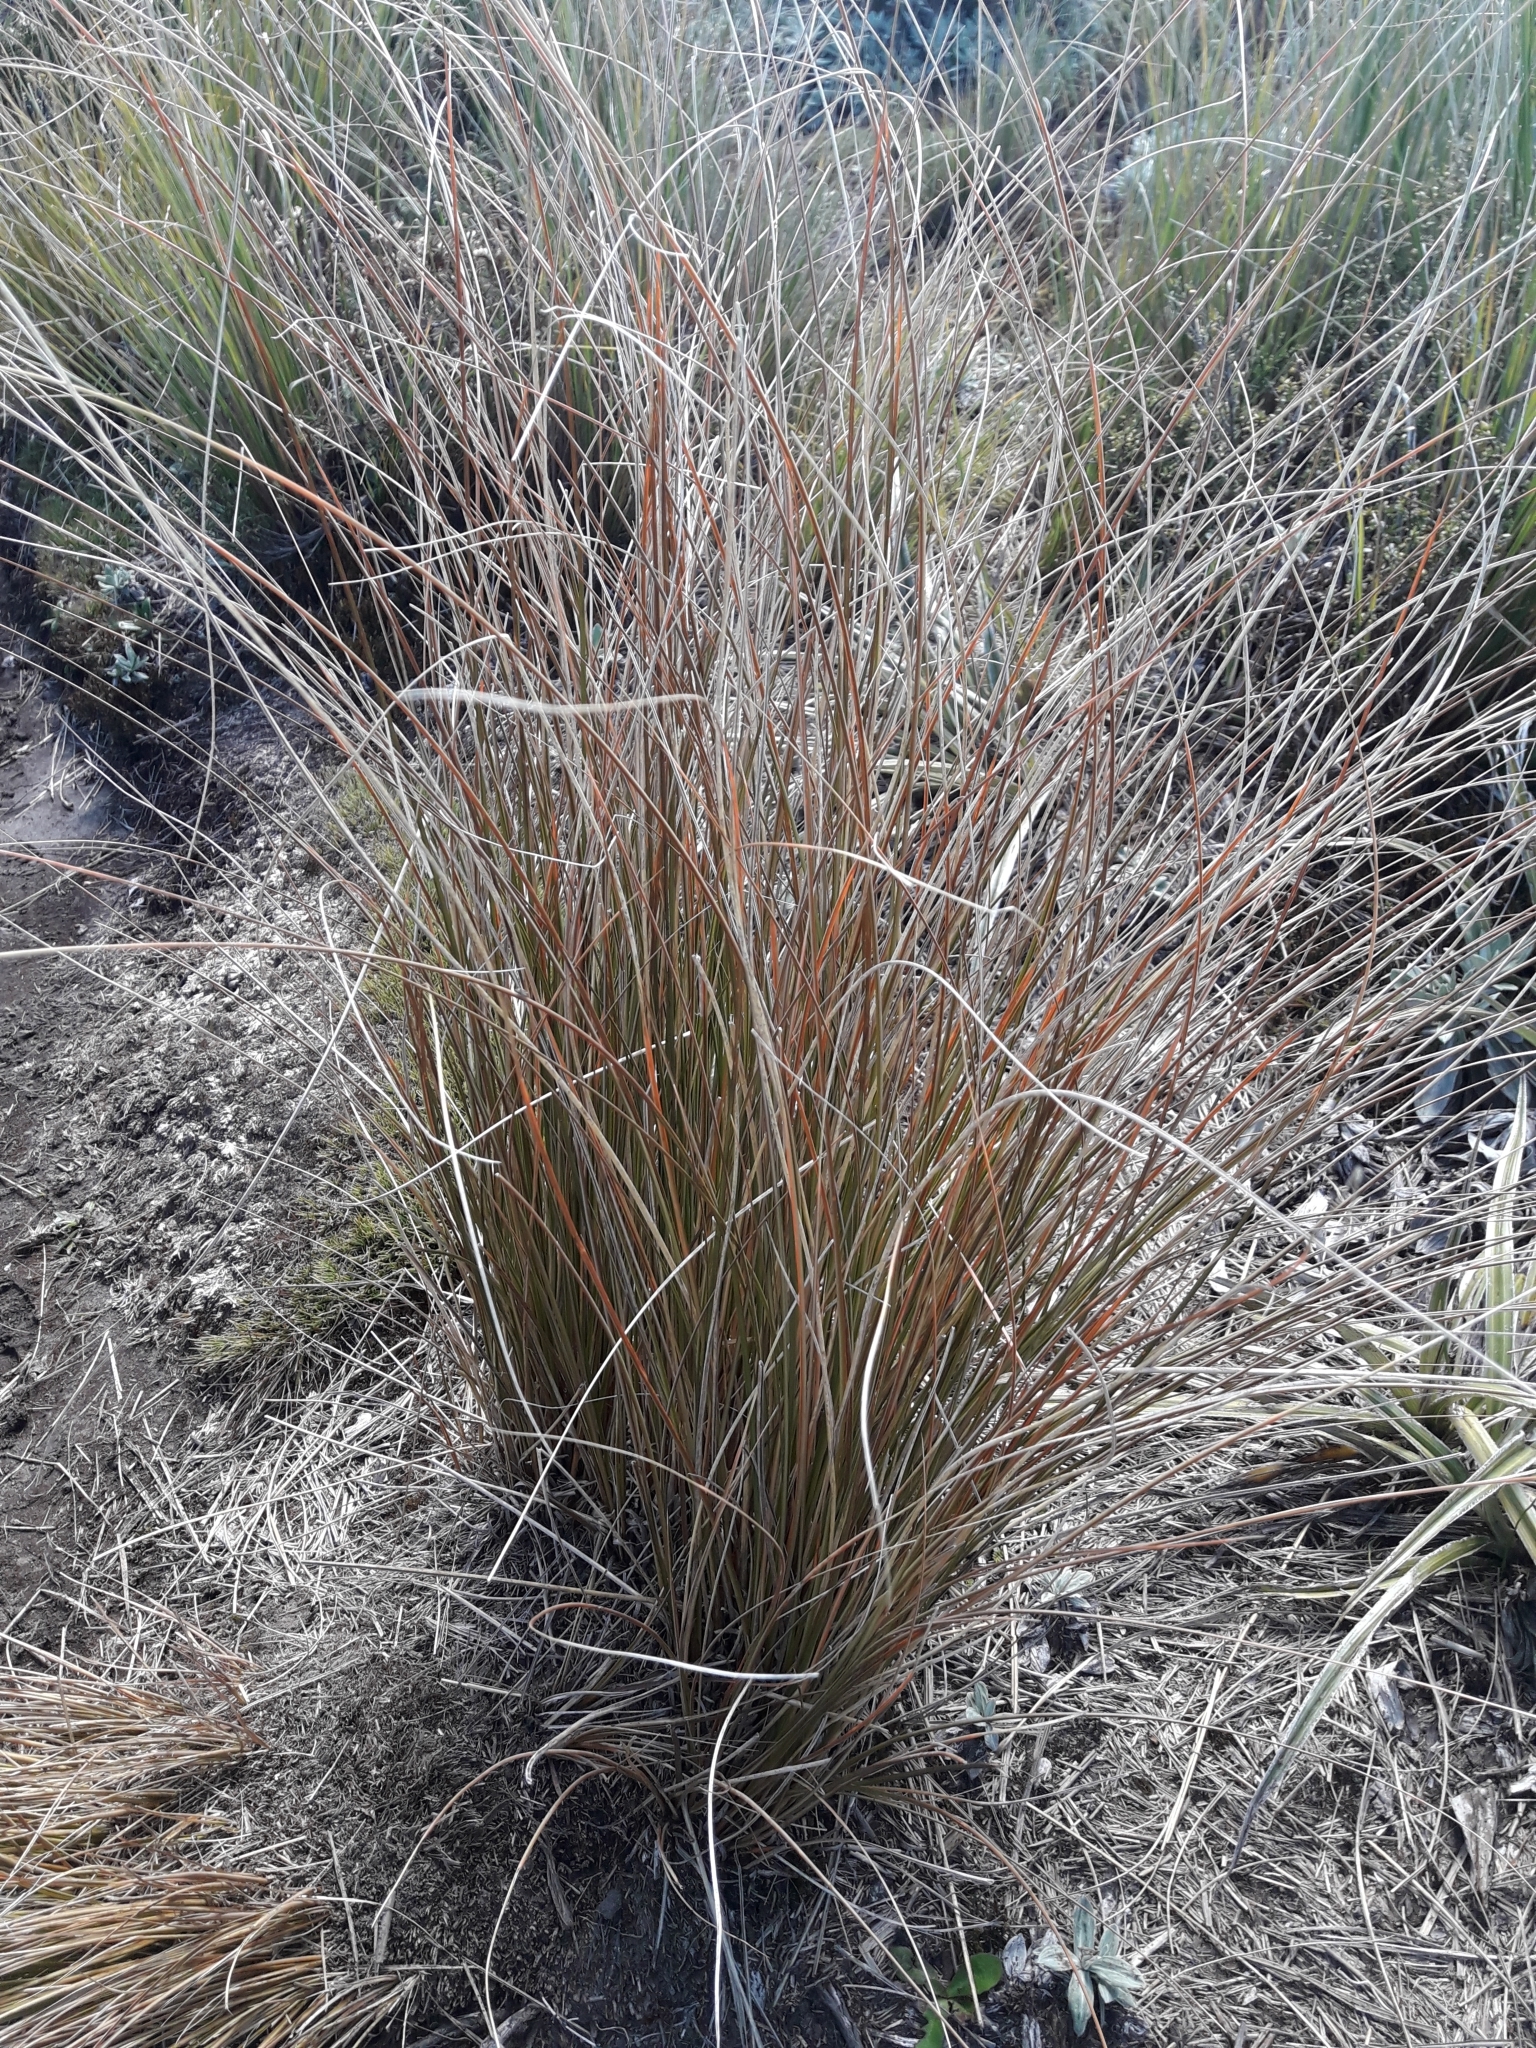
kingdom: Plantae
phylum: Tracheophyta
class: Liliopsida
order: Poales
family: Poaceae
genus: Chionochloa
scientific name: Chionochloa rubra
